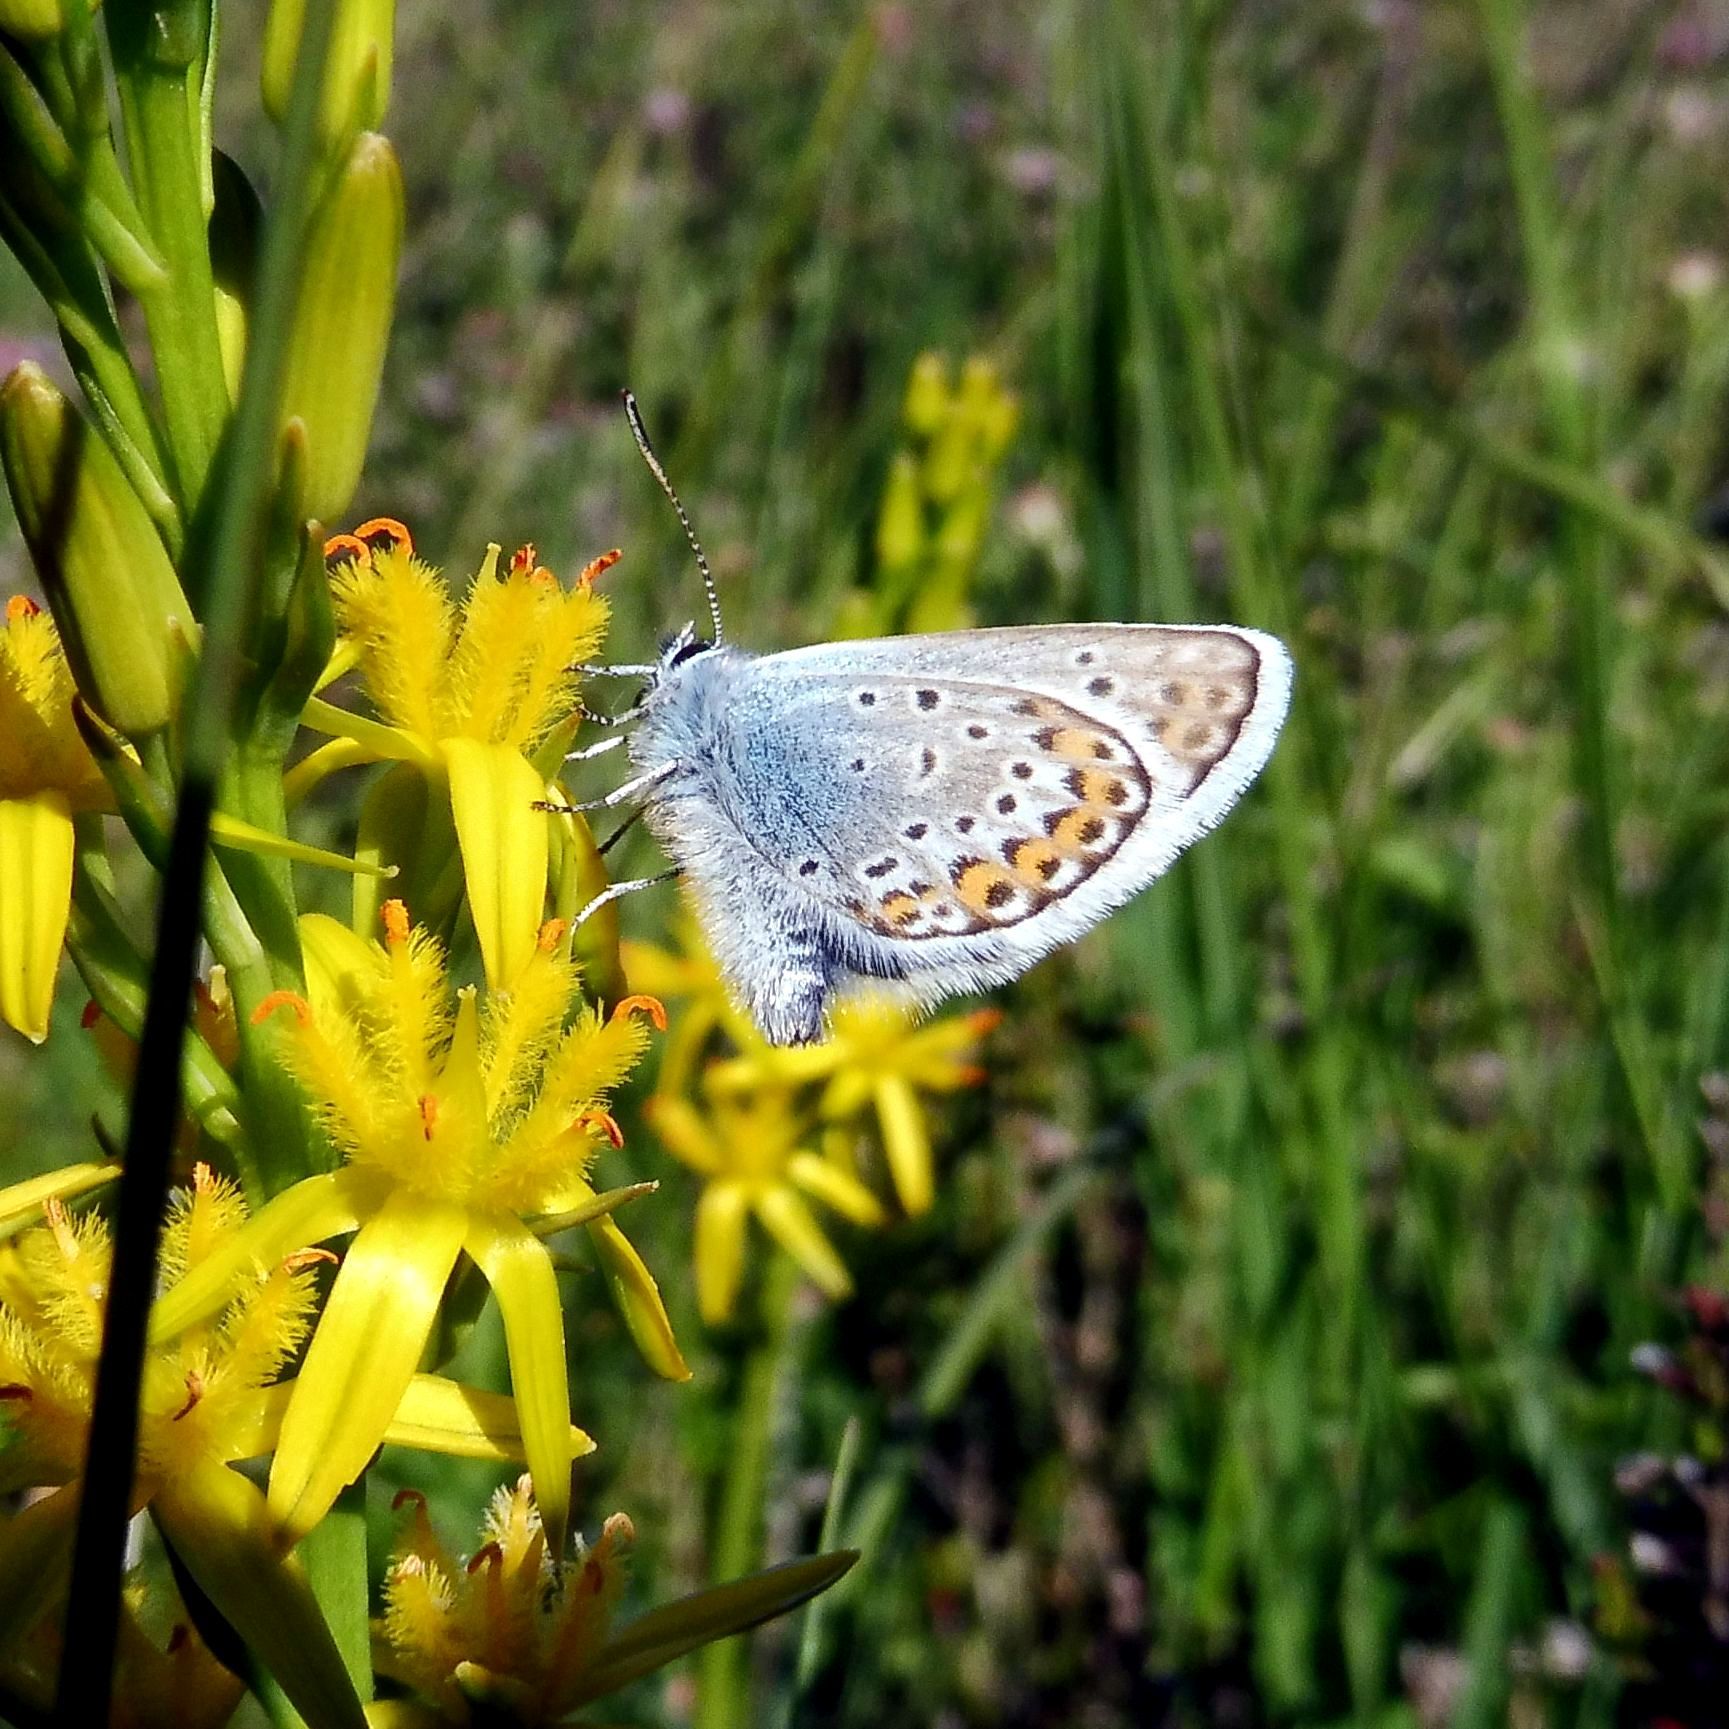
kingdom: Animalia
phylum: Arthropoda
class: Insecta
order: Lepidoptera
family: Lycaenidae
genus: Plebejus
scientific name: Plebejus argus
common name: Silver-studded blue
